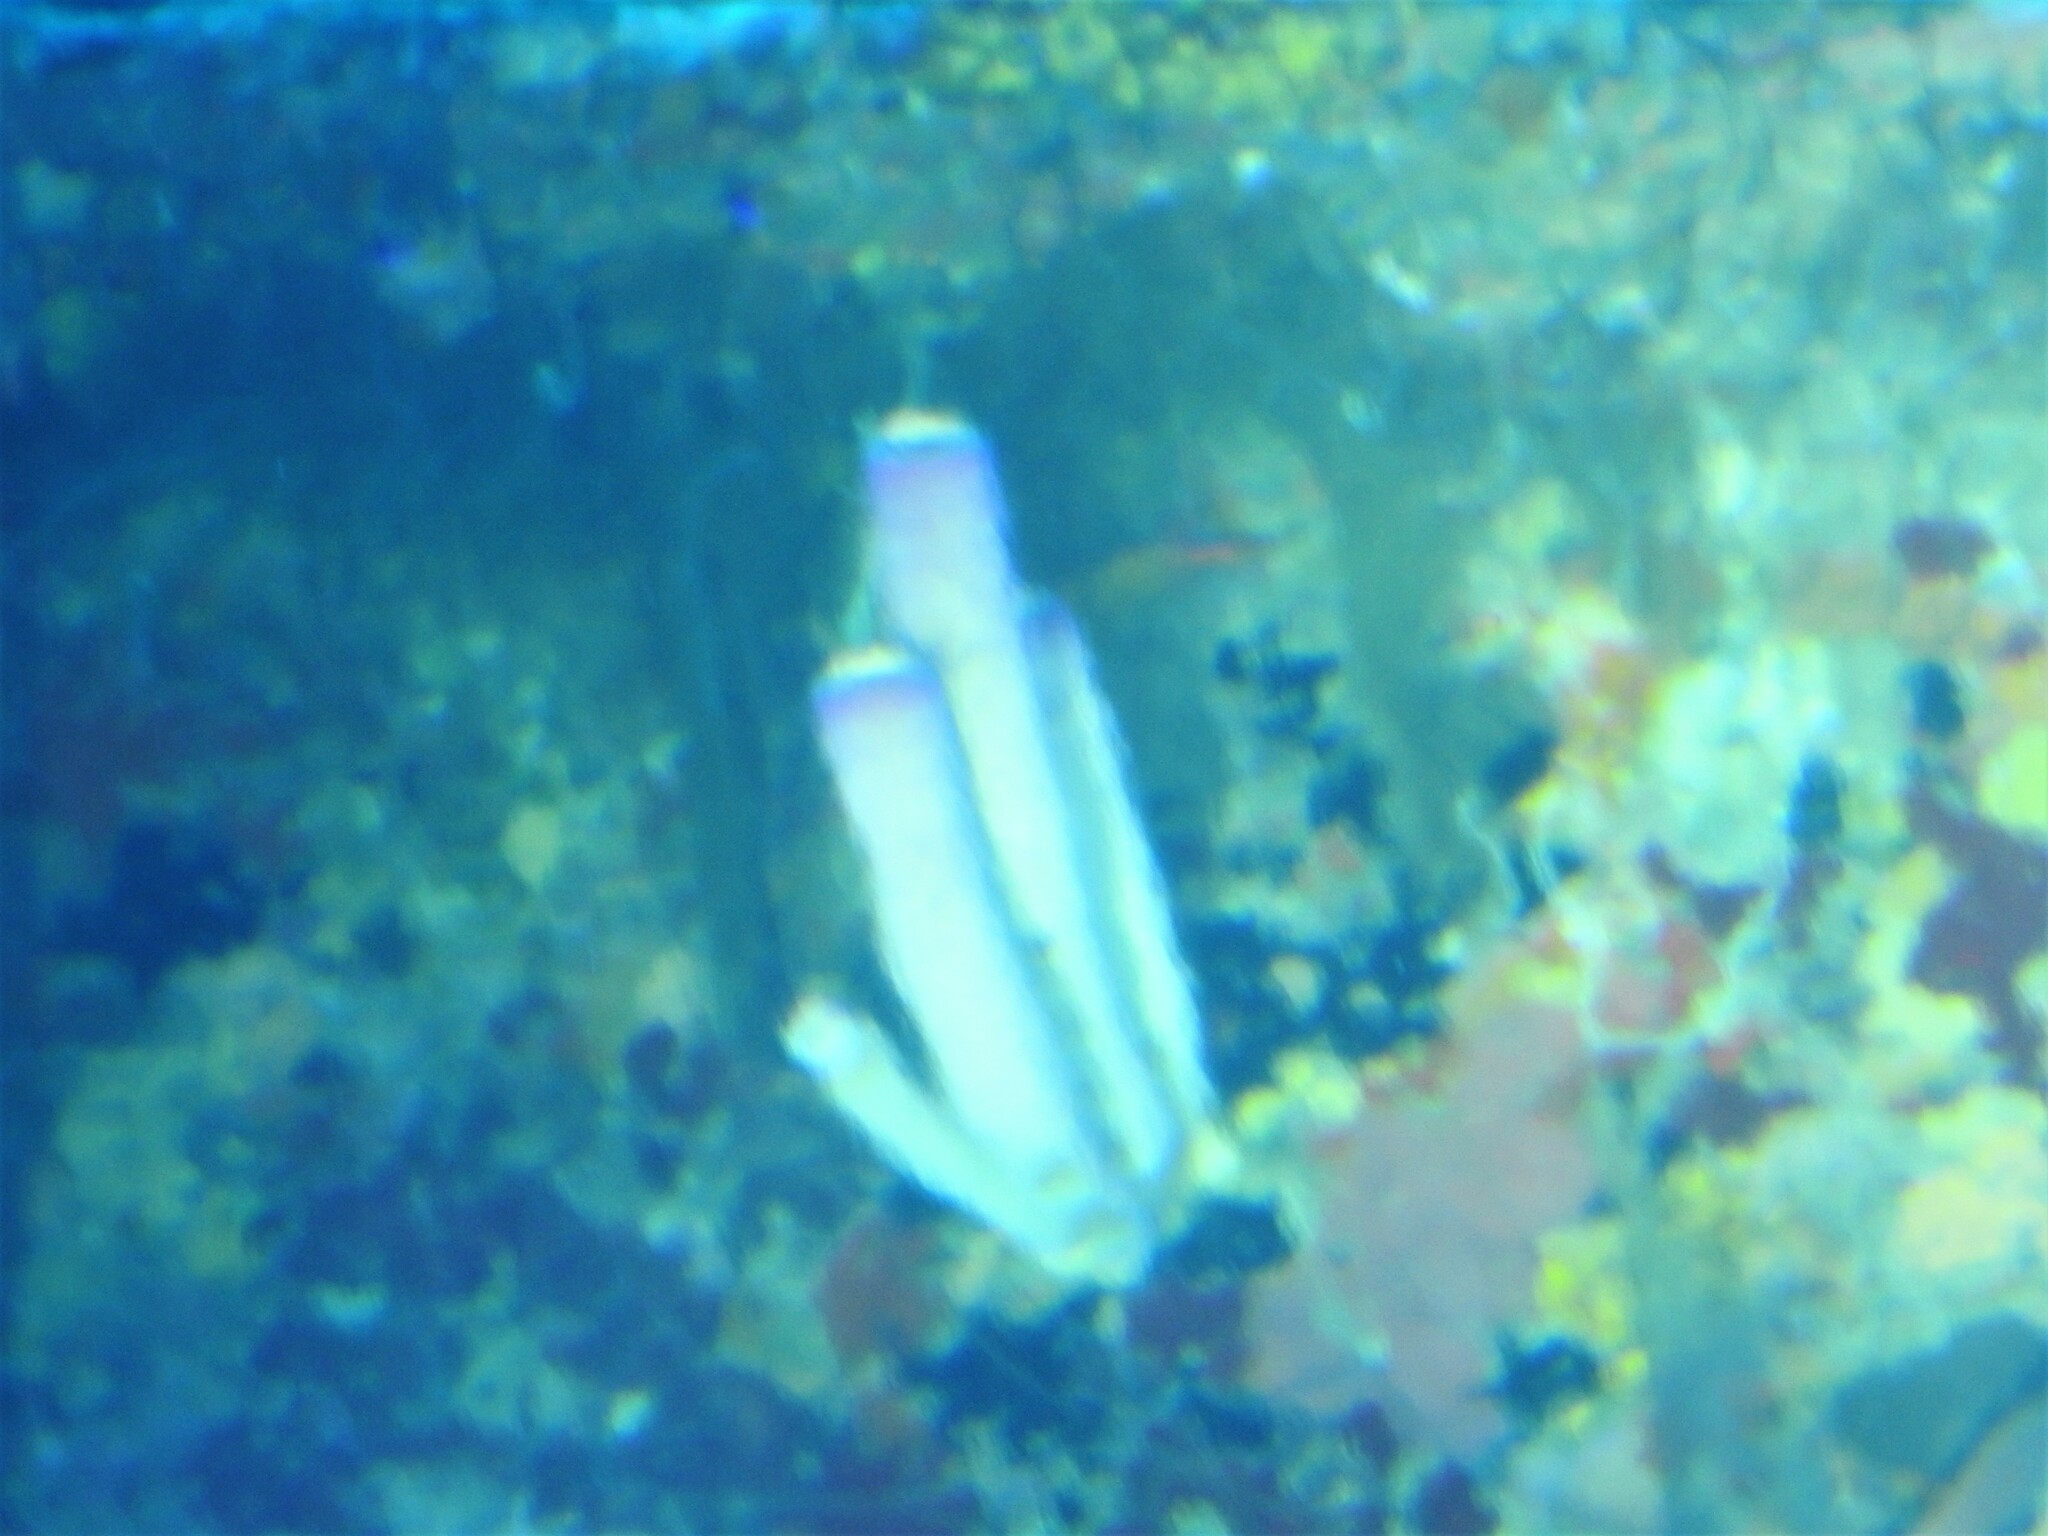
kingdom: Animalia
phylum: Porifera
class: Demospongiae
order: Verongiida
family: Aplysinidae
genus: Aplysina
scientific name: Aplysina archeri
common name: Stove-pipe sponge
